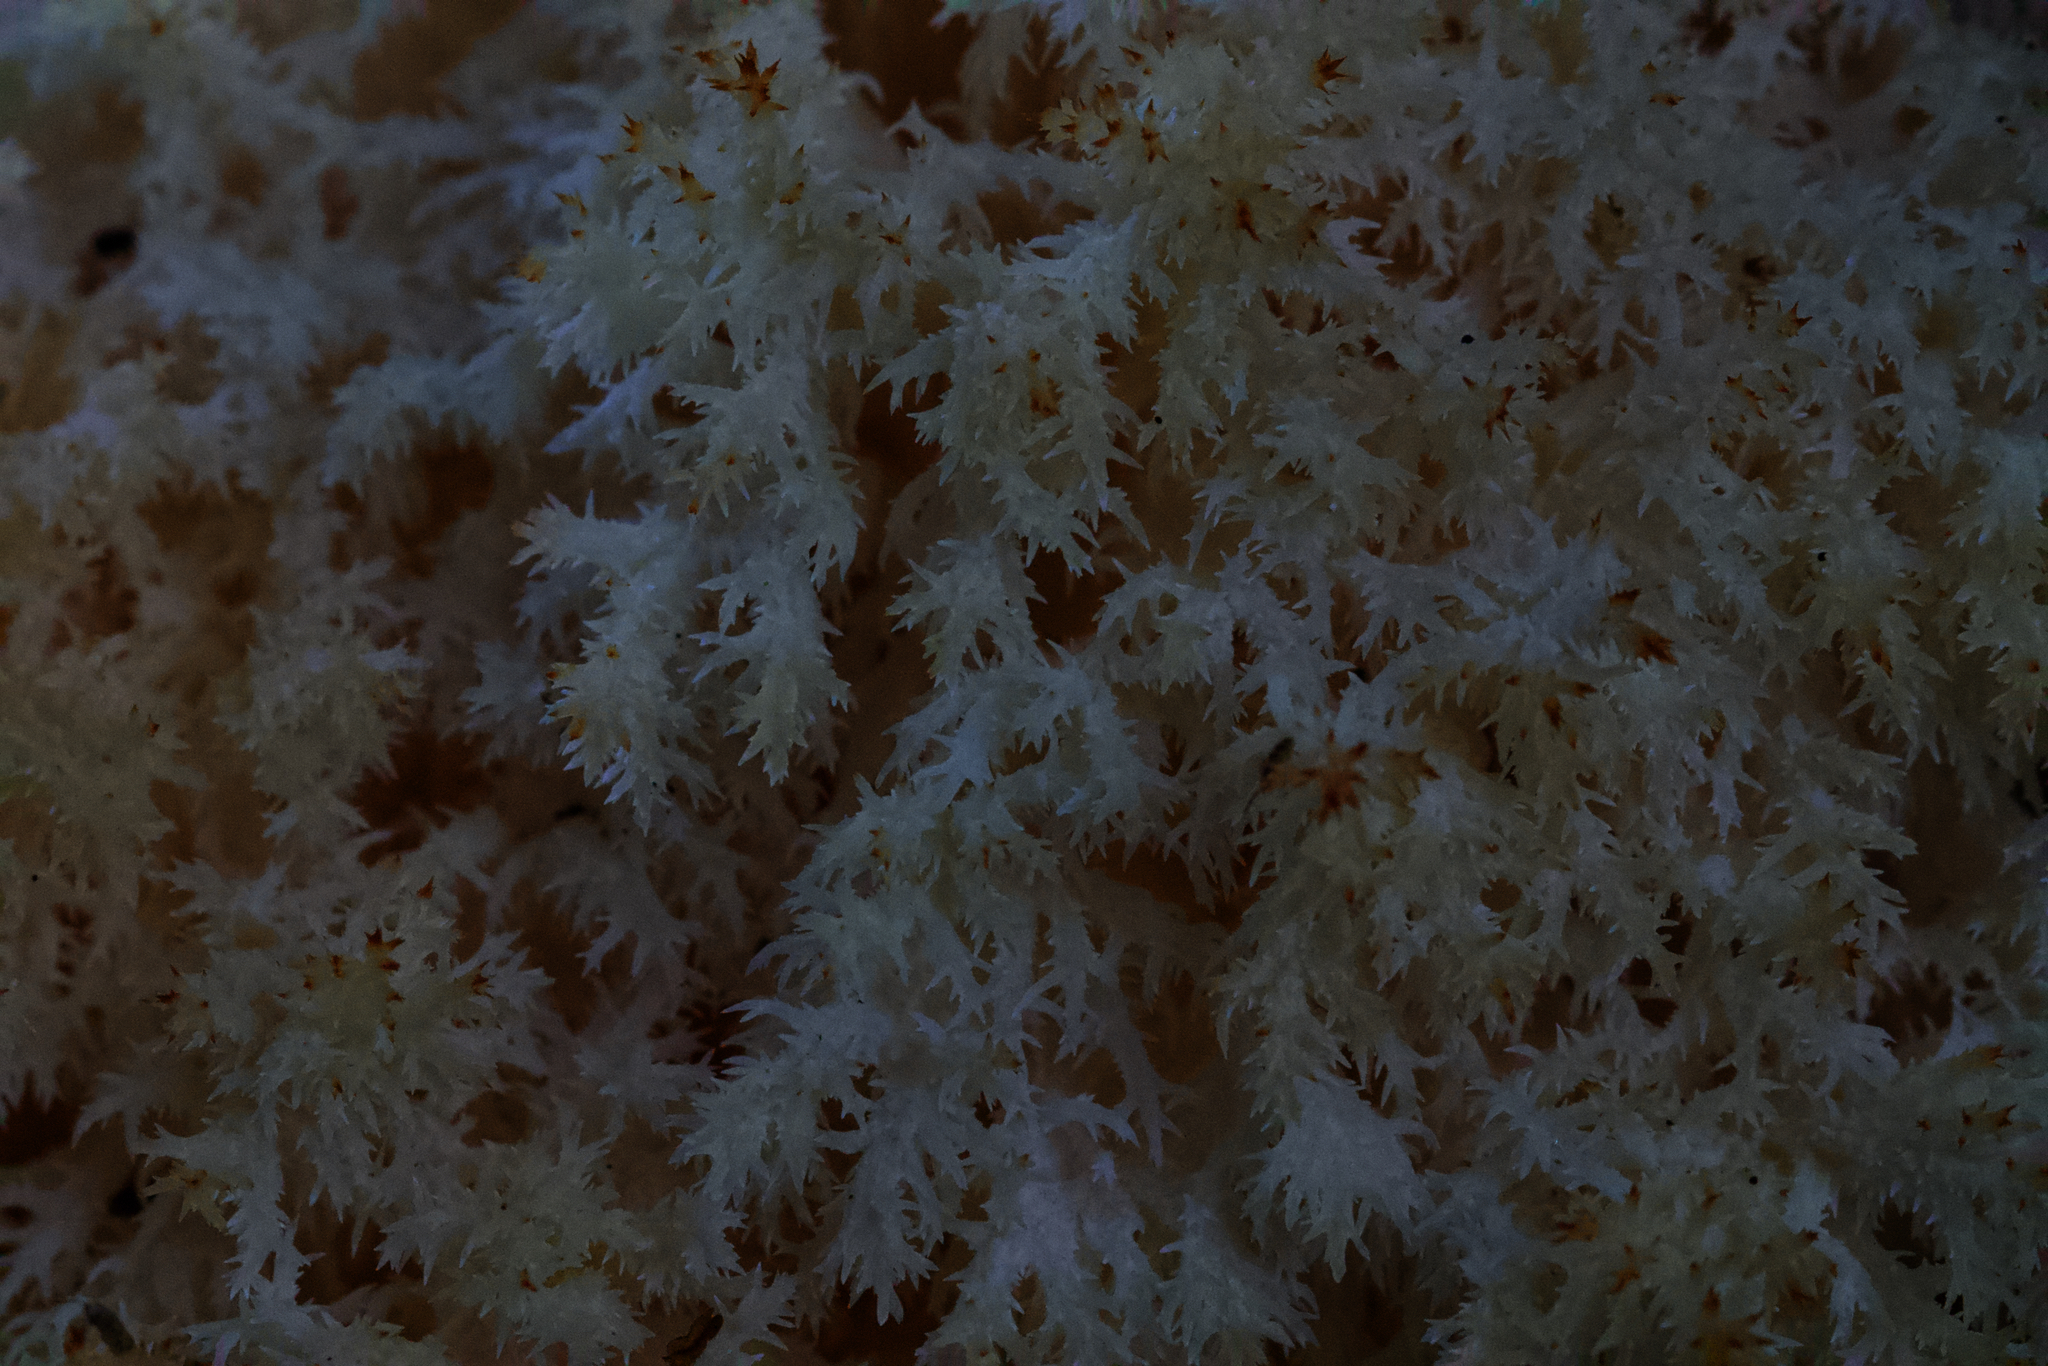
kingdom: Fungi
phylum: Basidiomycota
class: Agaricomycetes
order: Russulales
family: Hericiaceae
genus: Hericium
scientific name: Hericium coralloides
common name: Coral tooth
